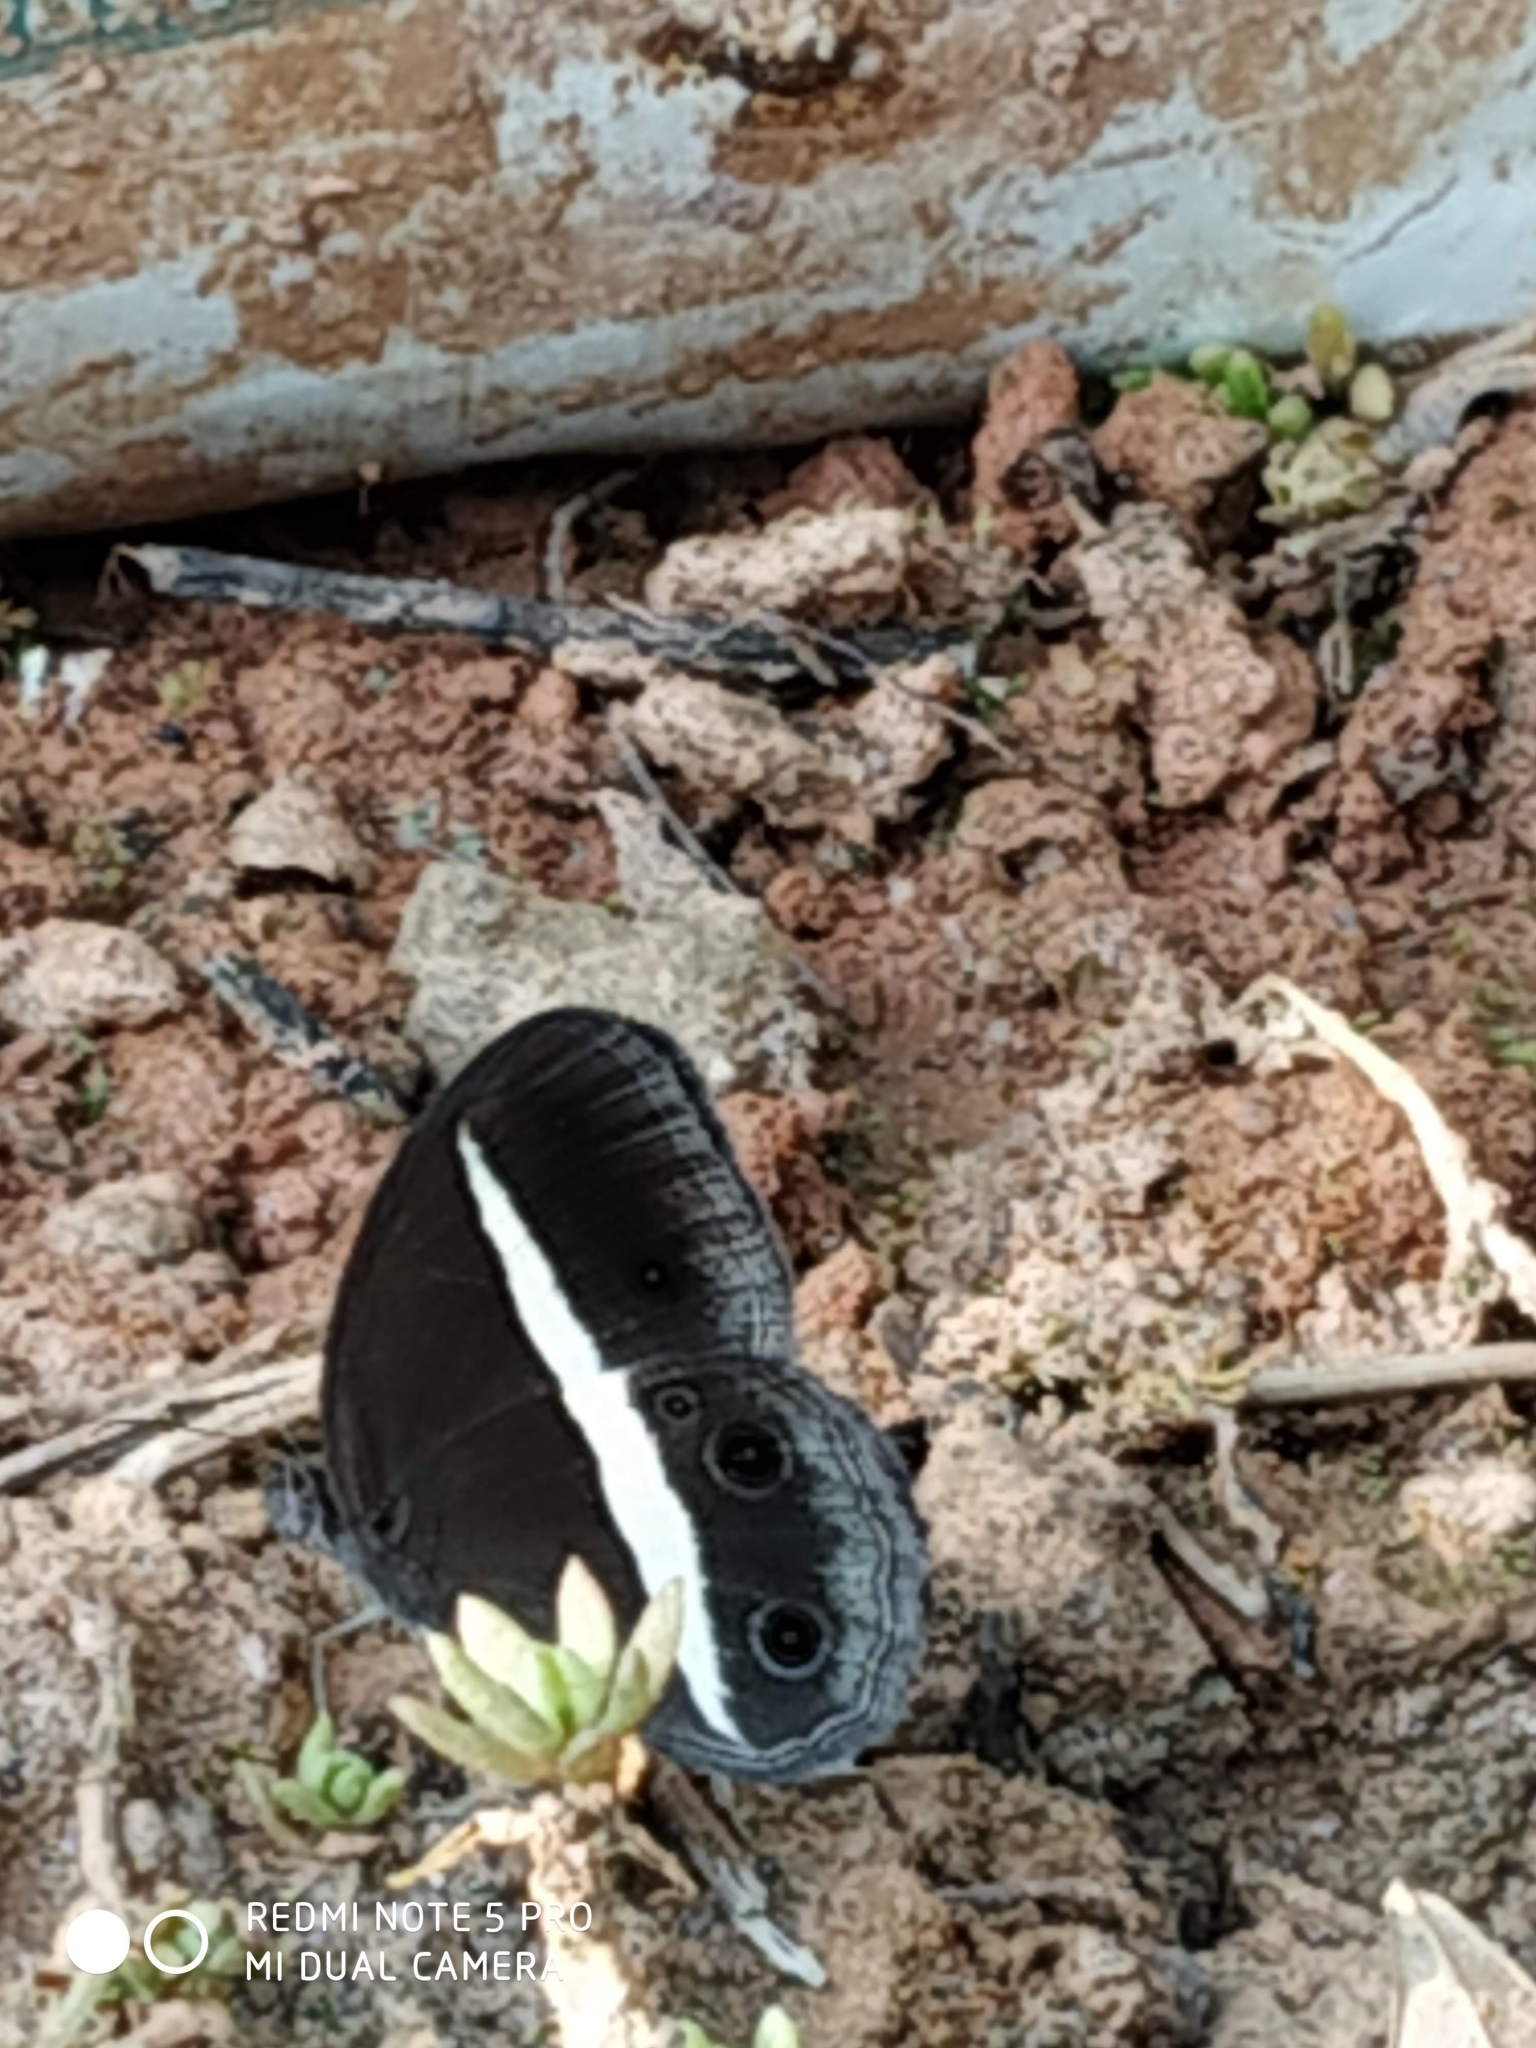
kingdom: Animalia
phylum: Arthropoda
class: Insecta
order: Lepidoptera
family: Nymphalidae
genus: Orsotriaena
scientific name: Orsotriaena medus
